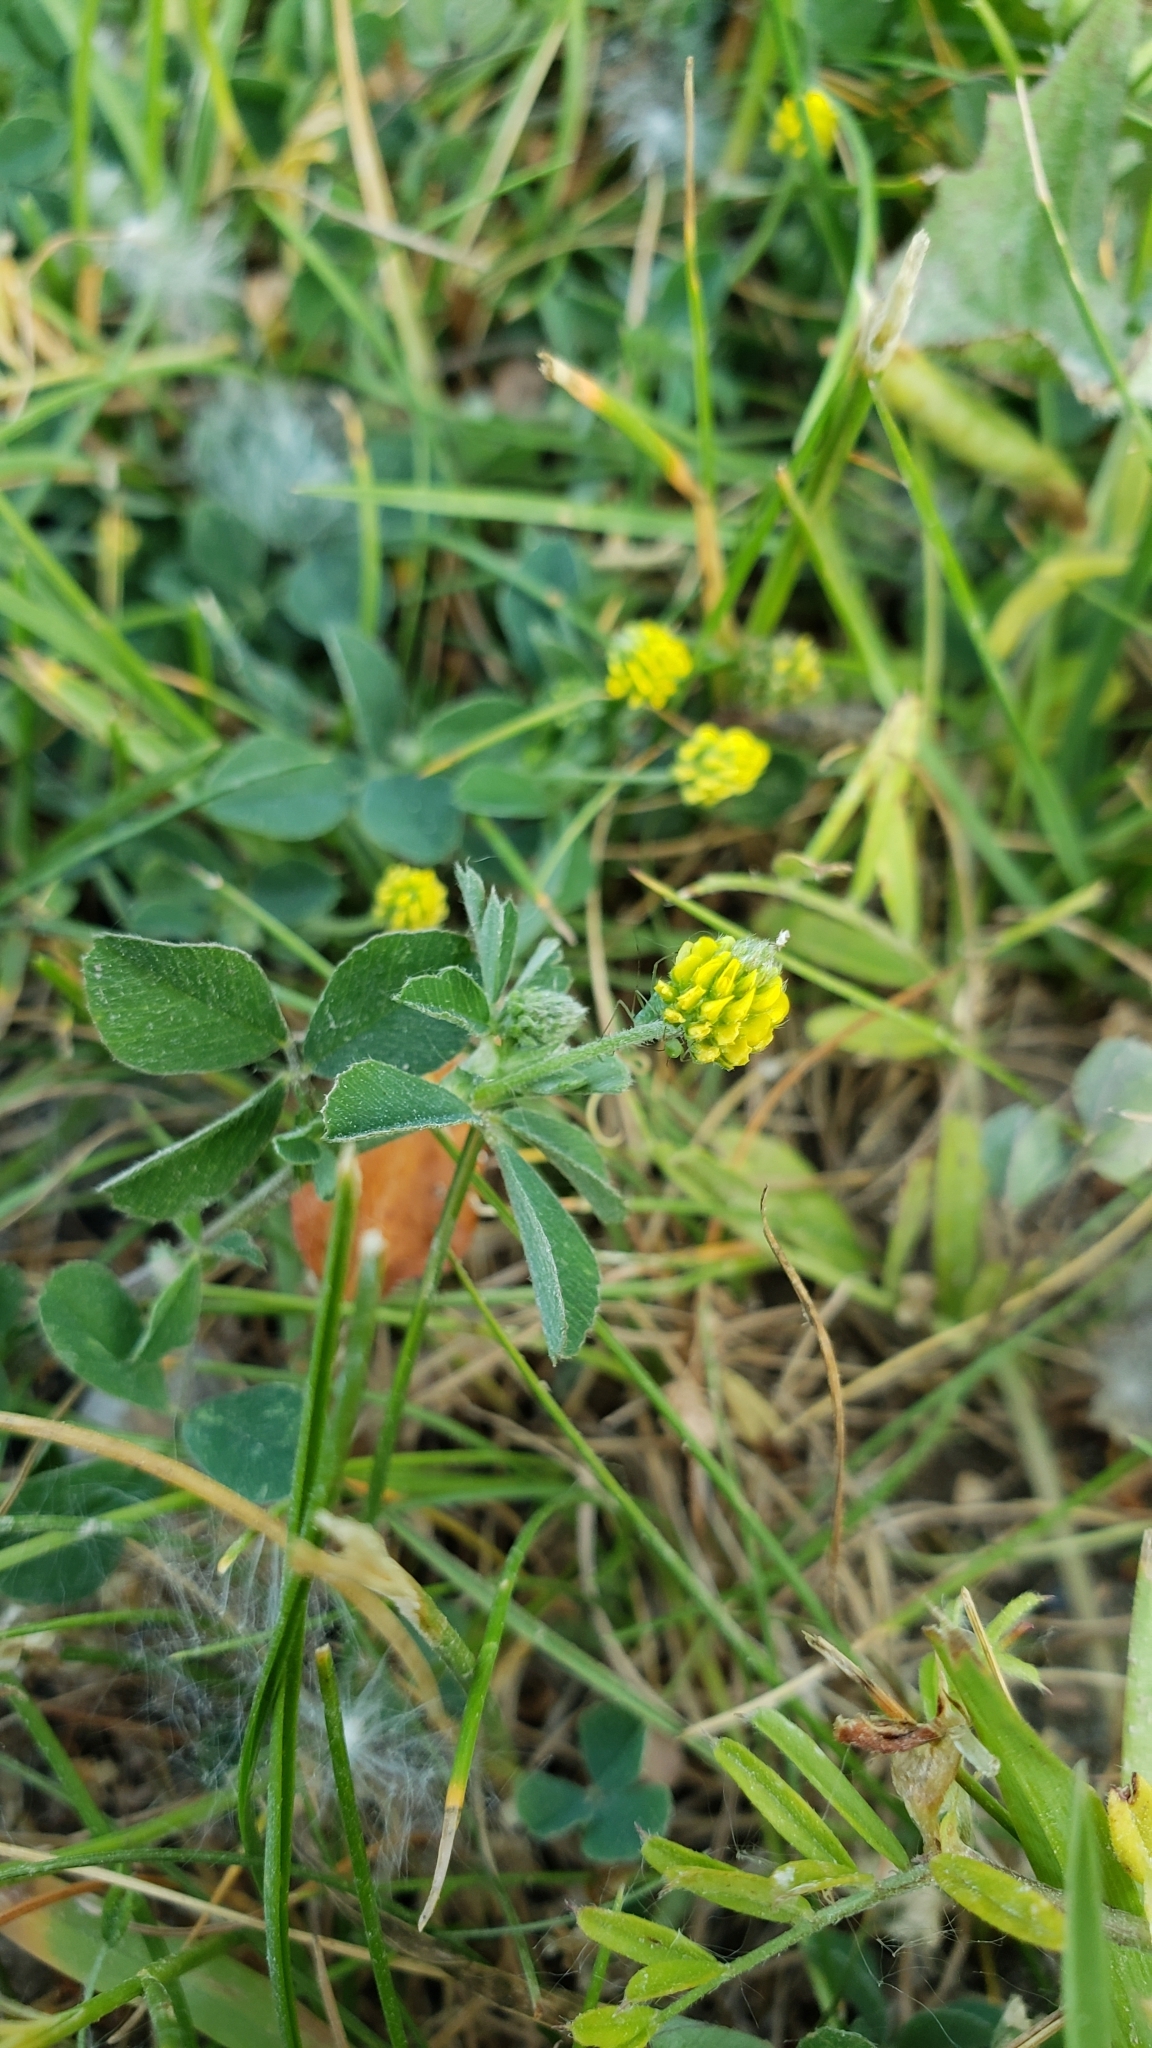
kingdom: Plantae
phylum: Tracheophyta
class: Magnoliopsida
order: Fabales
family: Fabaceae
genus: Medicago
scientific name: Medicago lupulina
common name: Black medick
